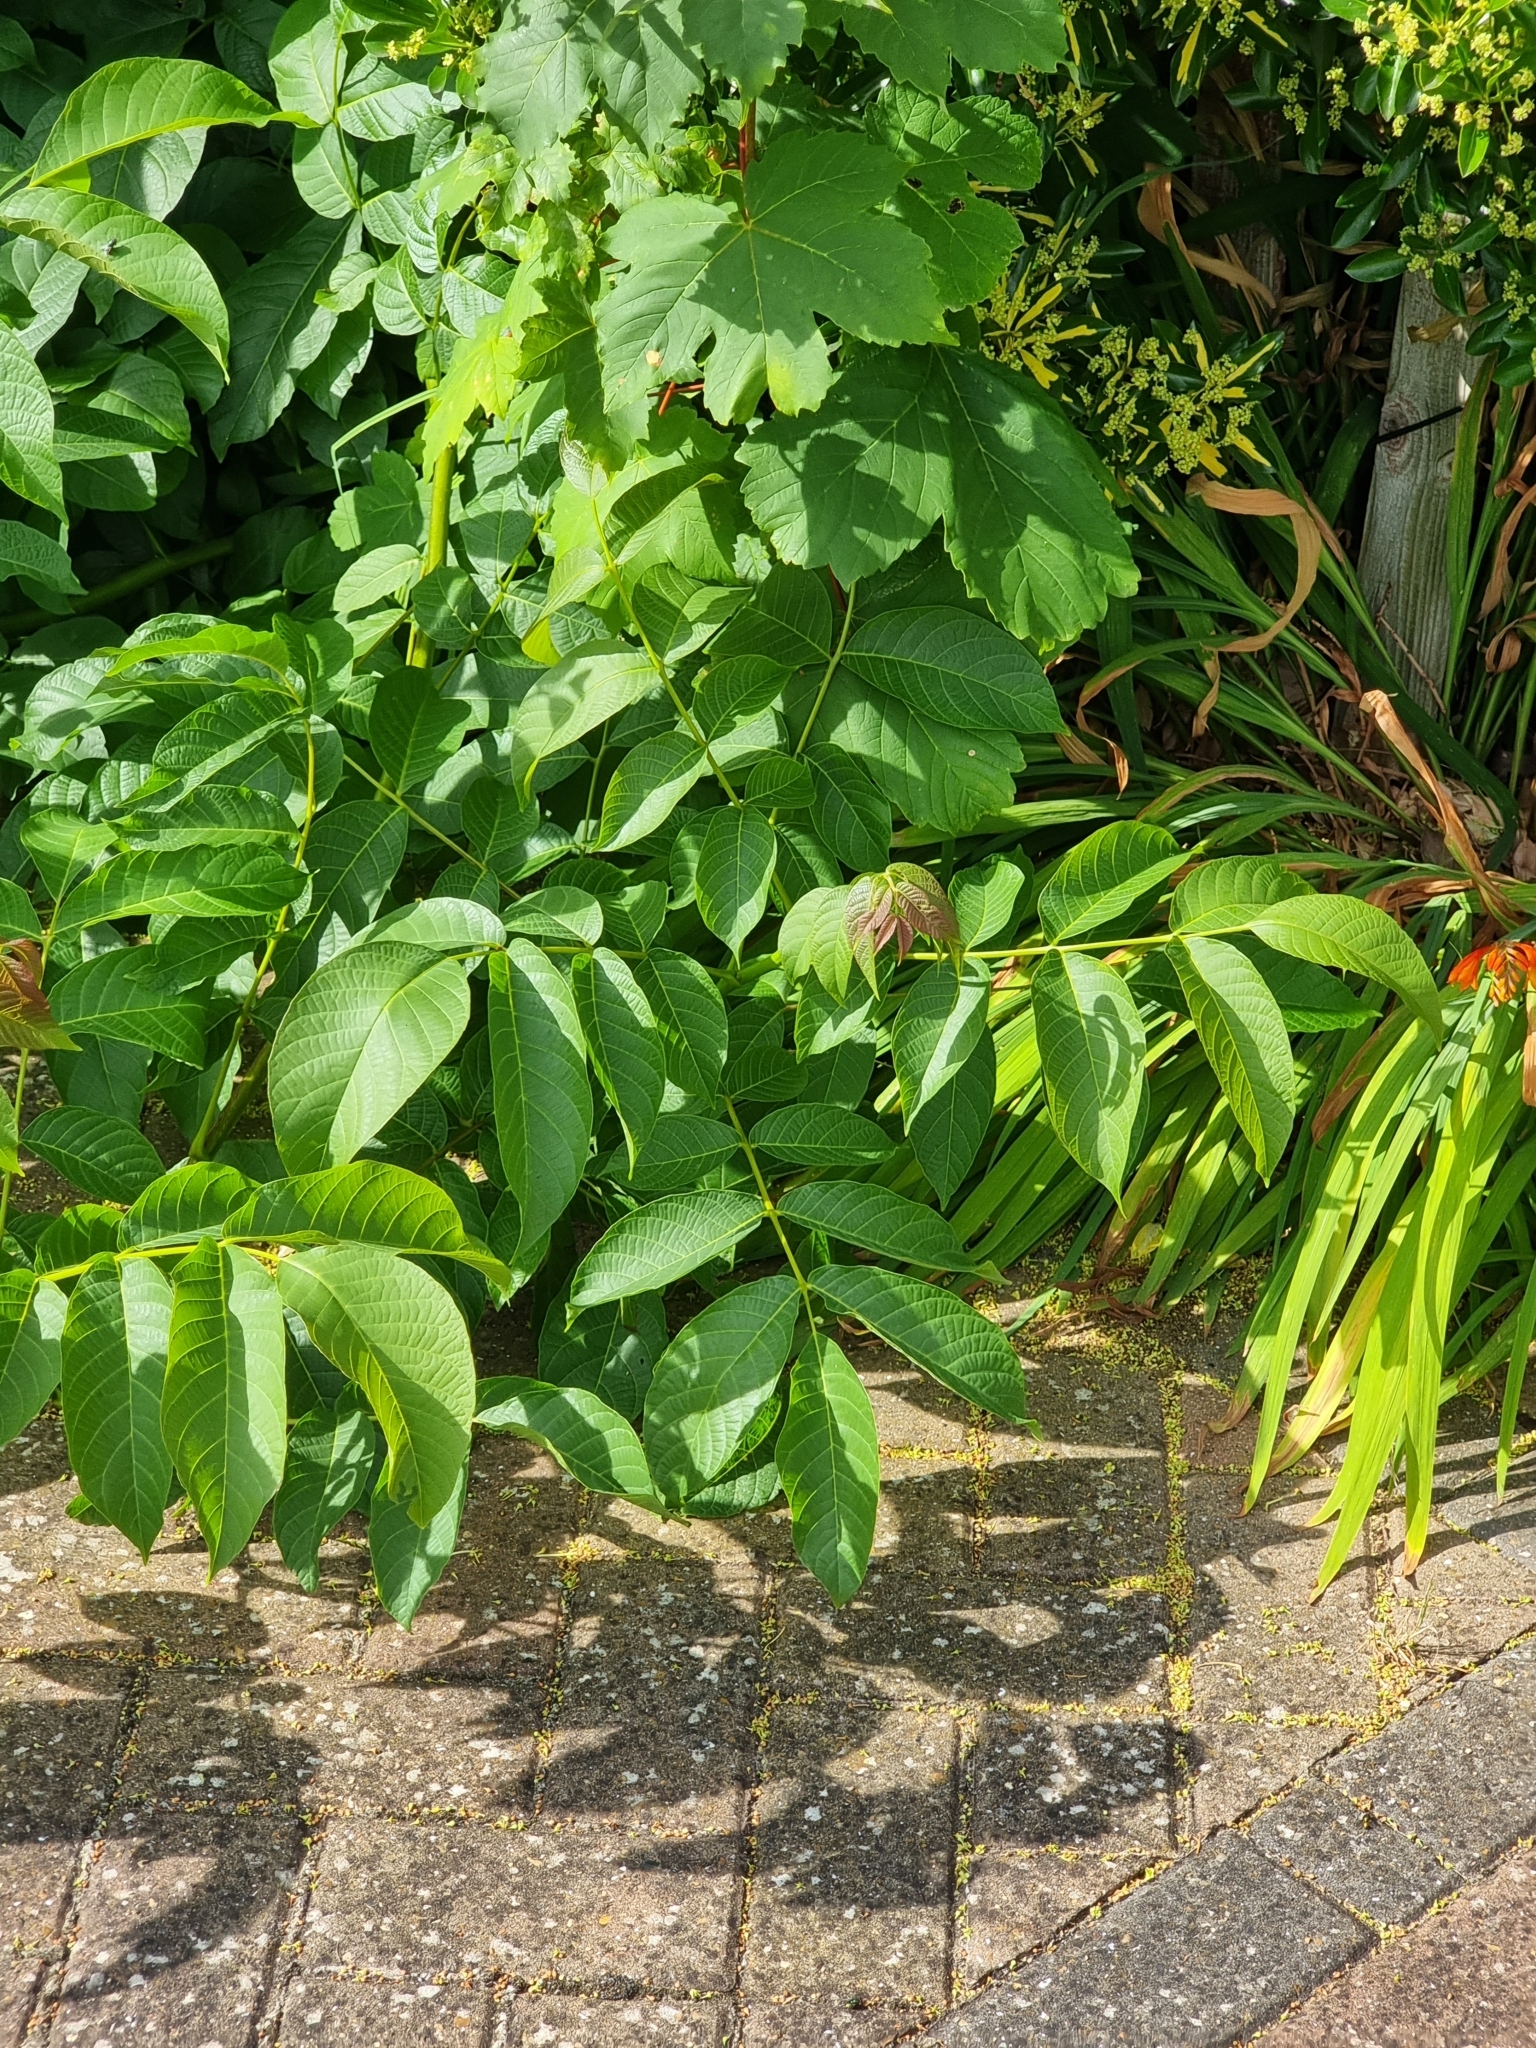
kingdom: Plantae
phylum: Tracheophyta
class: Magnoliopsida
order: Fagales
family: Juglandaceae
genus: Juglans
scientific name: Juglans regia
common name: Walnut
